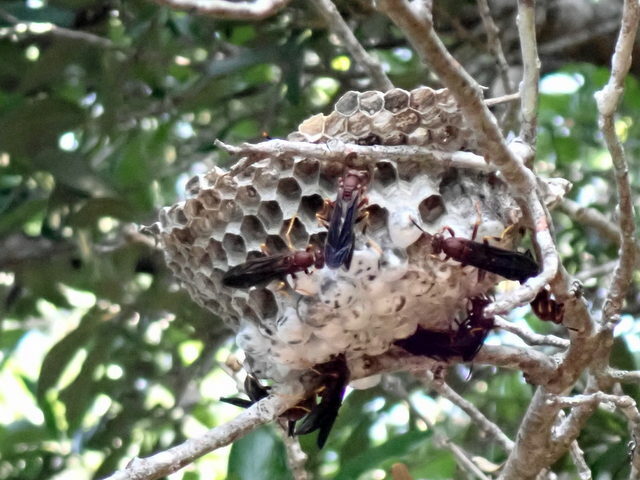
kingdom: Animalia
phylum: Arthropoda
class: Insecta
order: Hymenoptera
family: Eumenidae
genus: Polistes
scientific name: Polistes annularis
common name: Ringed paper wasp
